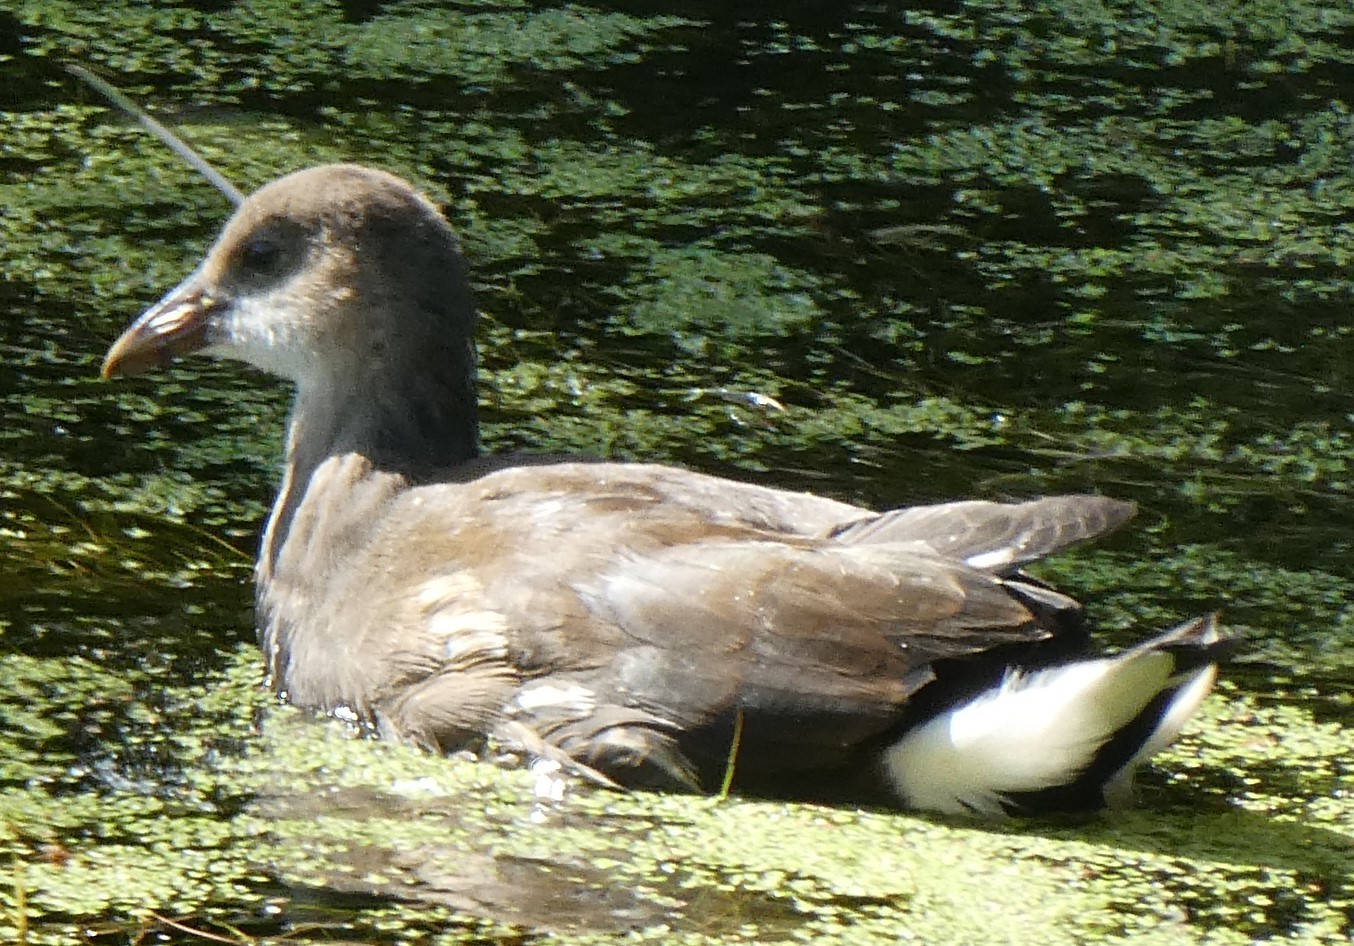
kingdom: Animalia
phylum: Chordata
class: Aves
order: Gruiformes
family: Rallidae
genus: Gallinula
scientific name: Gallinula chloropus
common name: Common moorhen
